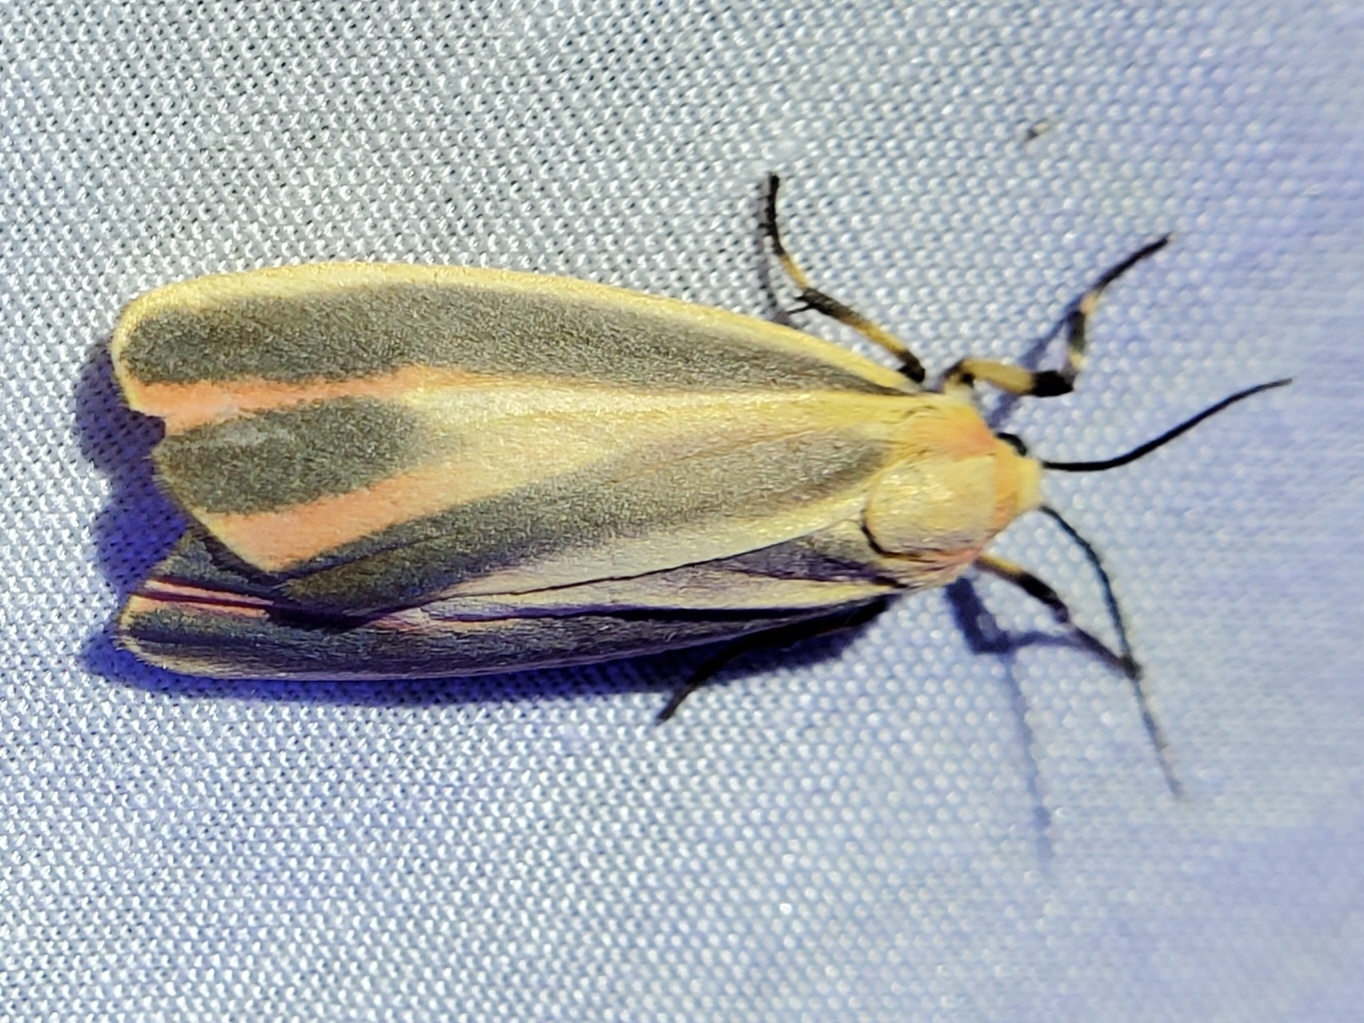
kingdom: Animalia
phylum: Arthropoda
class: Insecta
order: Lepidoptera
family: Erebidae
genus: Hypoprepia
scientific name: Hypoprepia fucosa
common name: Painted lichen moth
